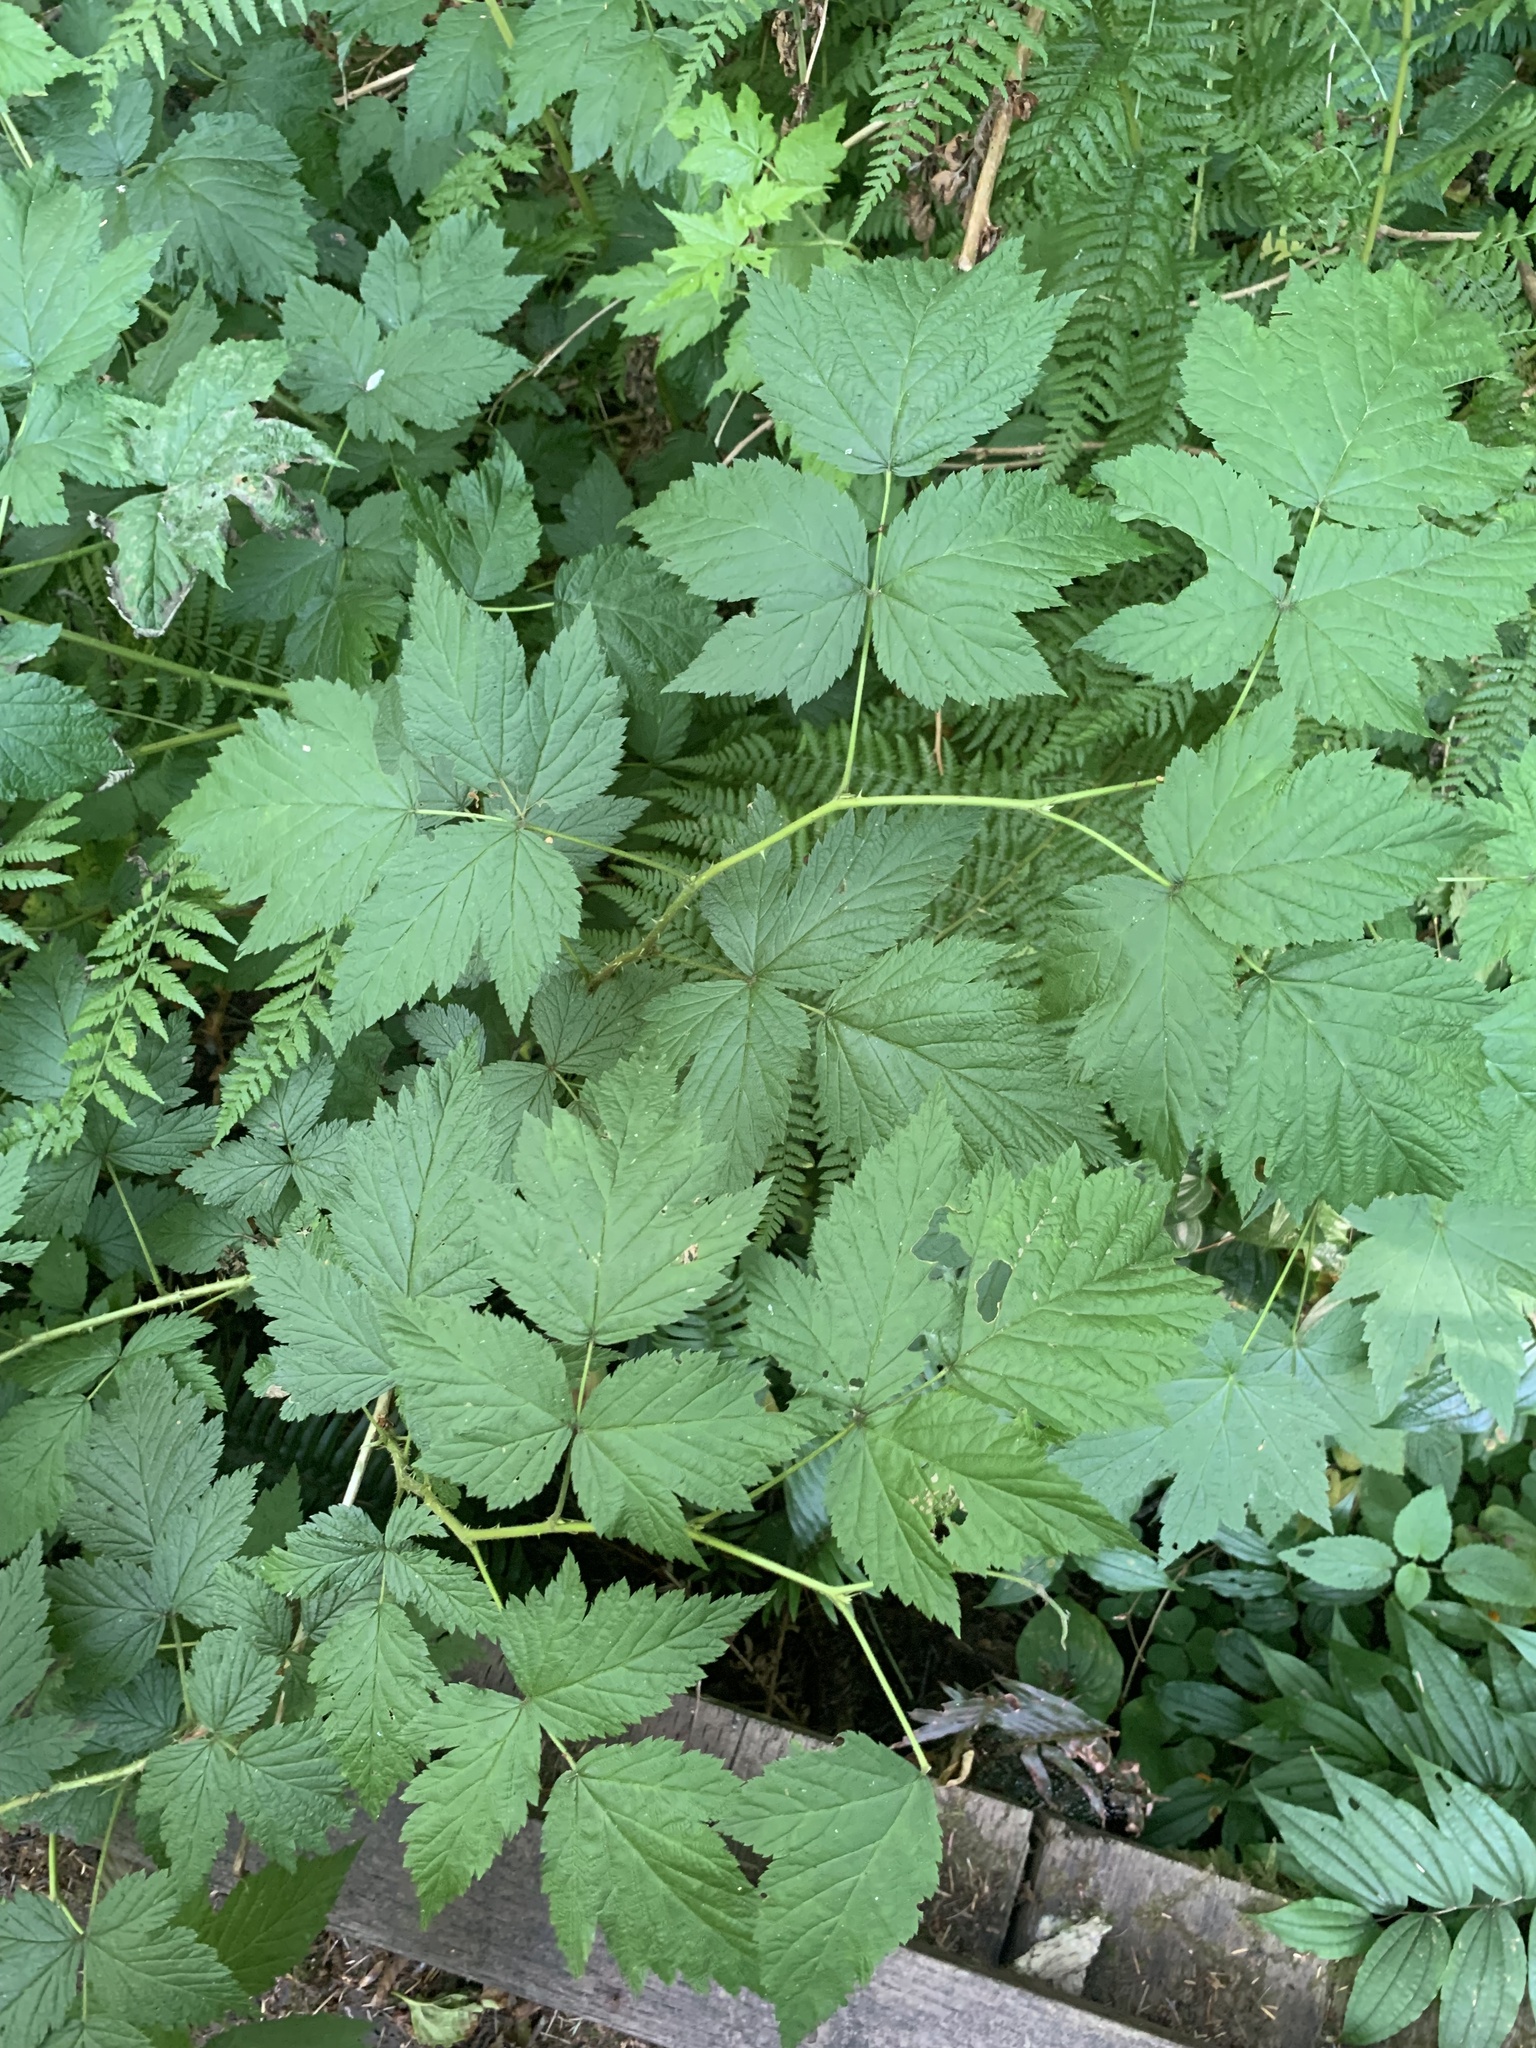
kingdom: Plantae
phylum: Tracheophyta
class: Magnoliopsida
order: Rosales
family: Rosaceae
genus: Rubus
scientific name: Rubus spectabilis
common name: Salmonberry
